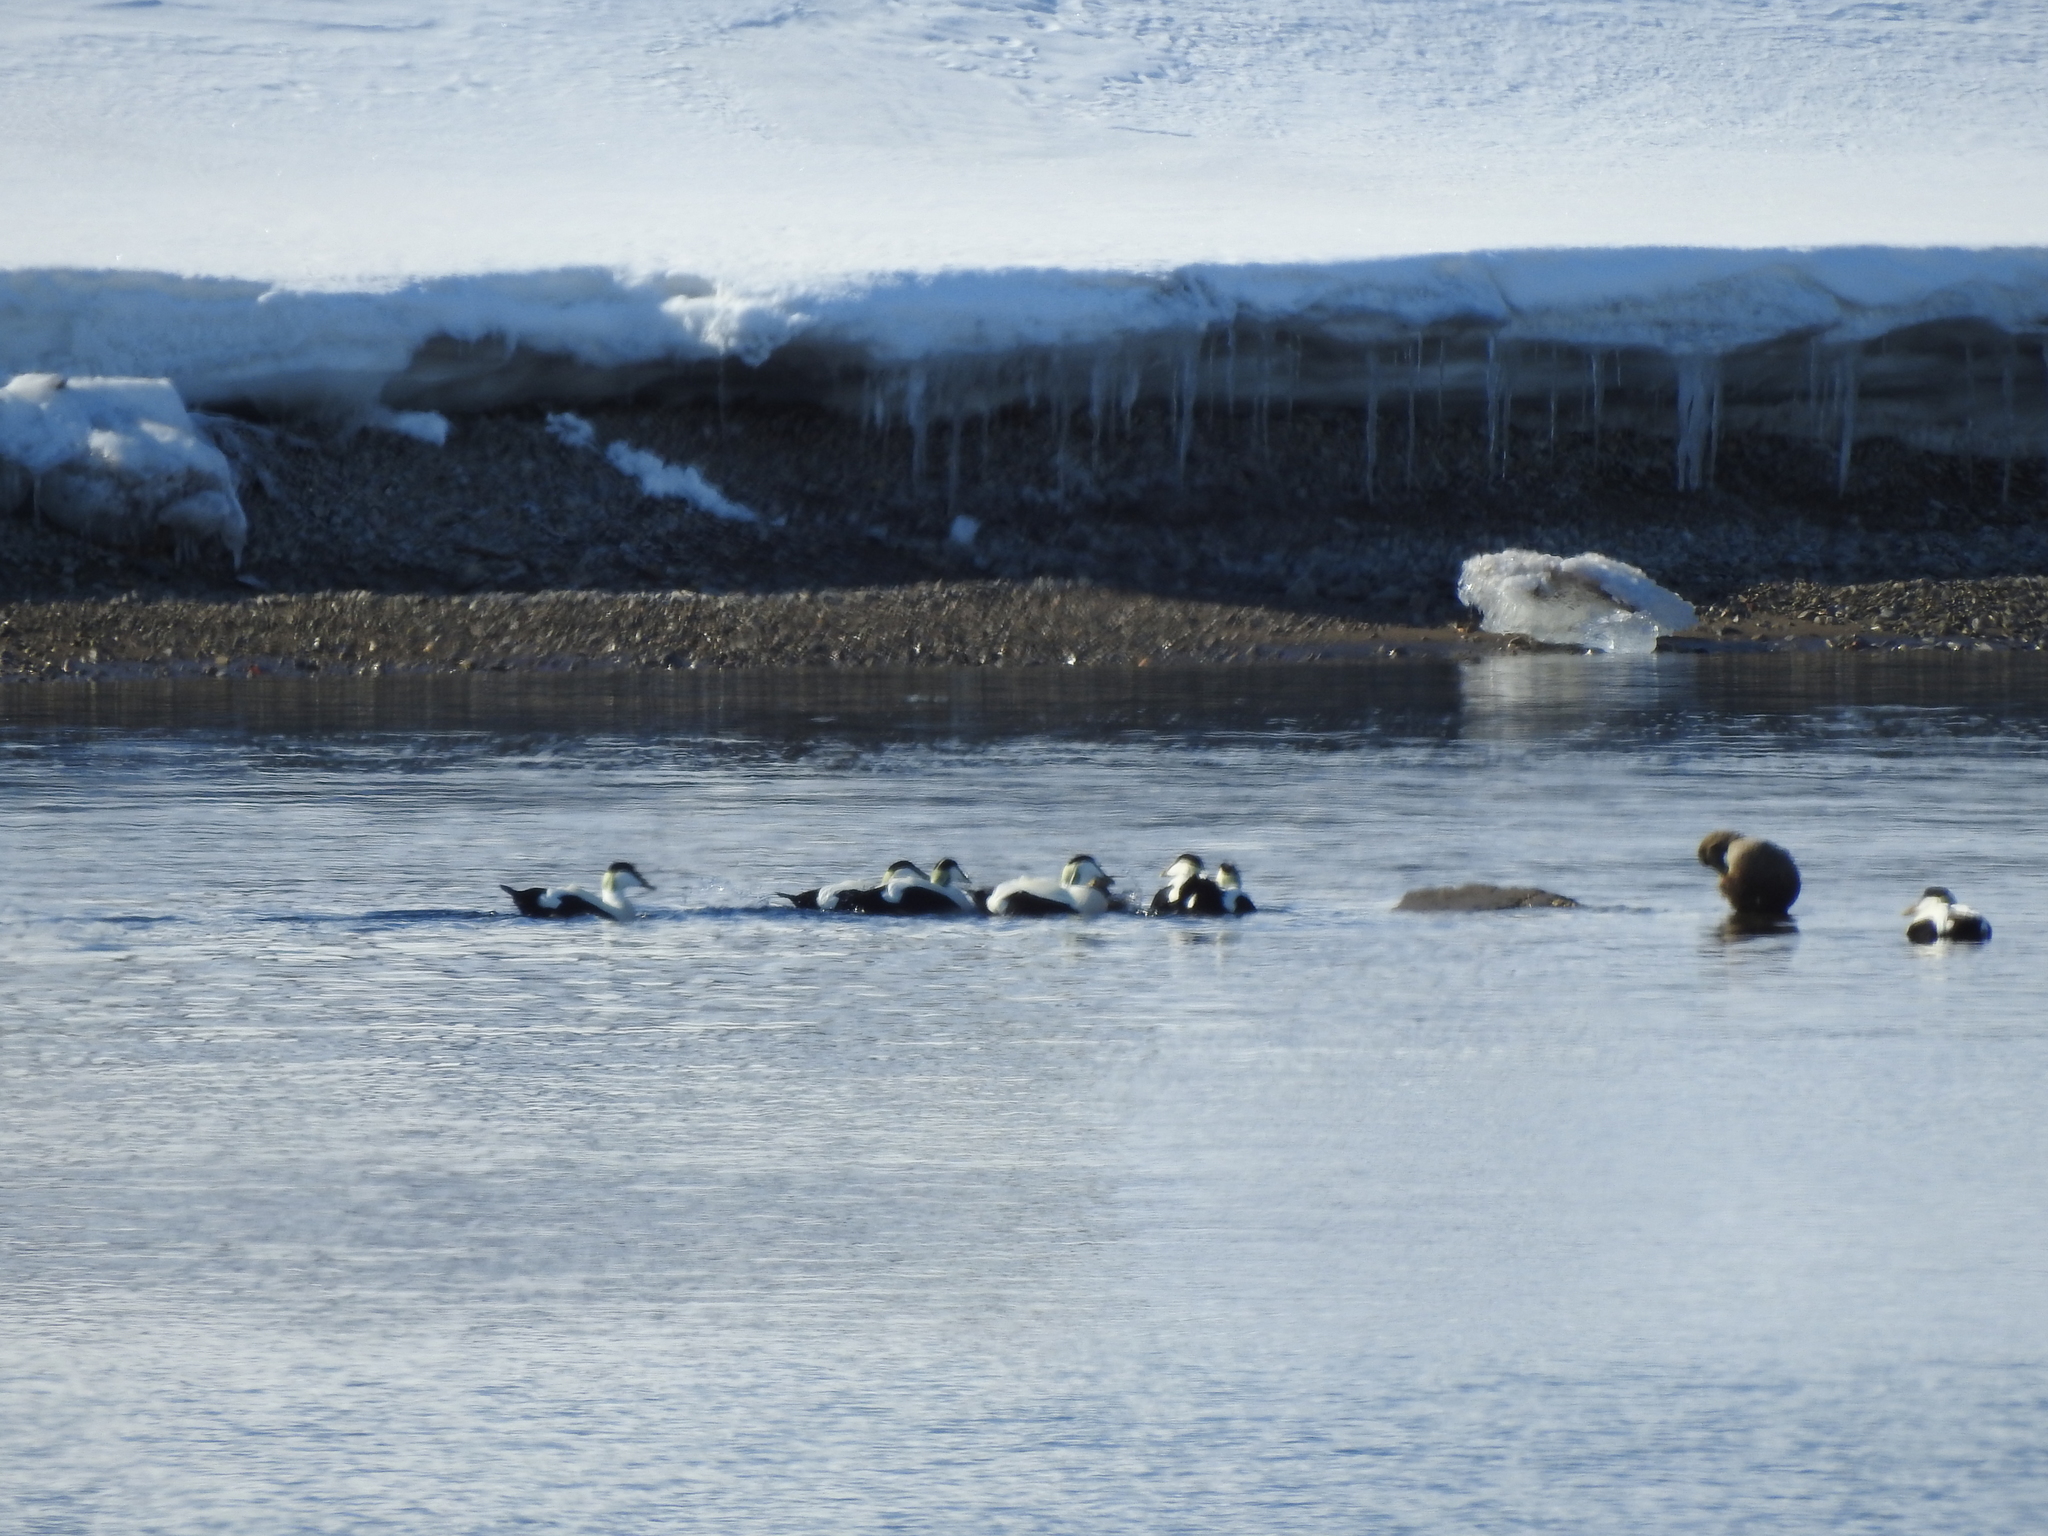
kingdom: Animalia
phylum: Chordata
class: Aves
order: Anseriformes
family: Anatidae
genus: Somateria
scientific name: Somateria mollissima
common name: Common eider
